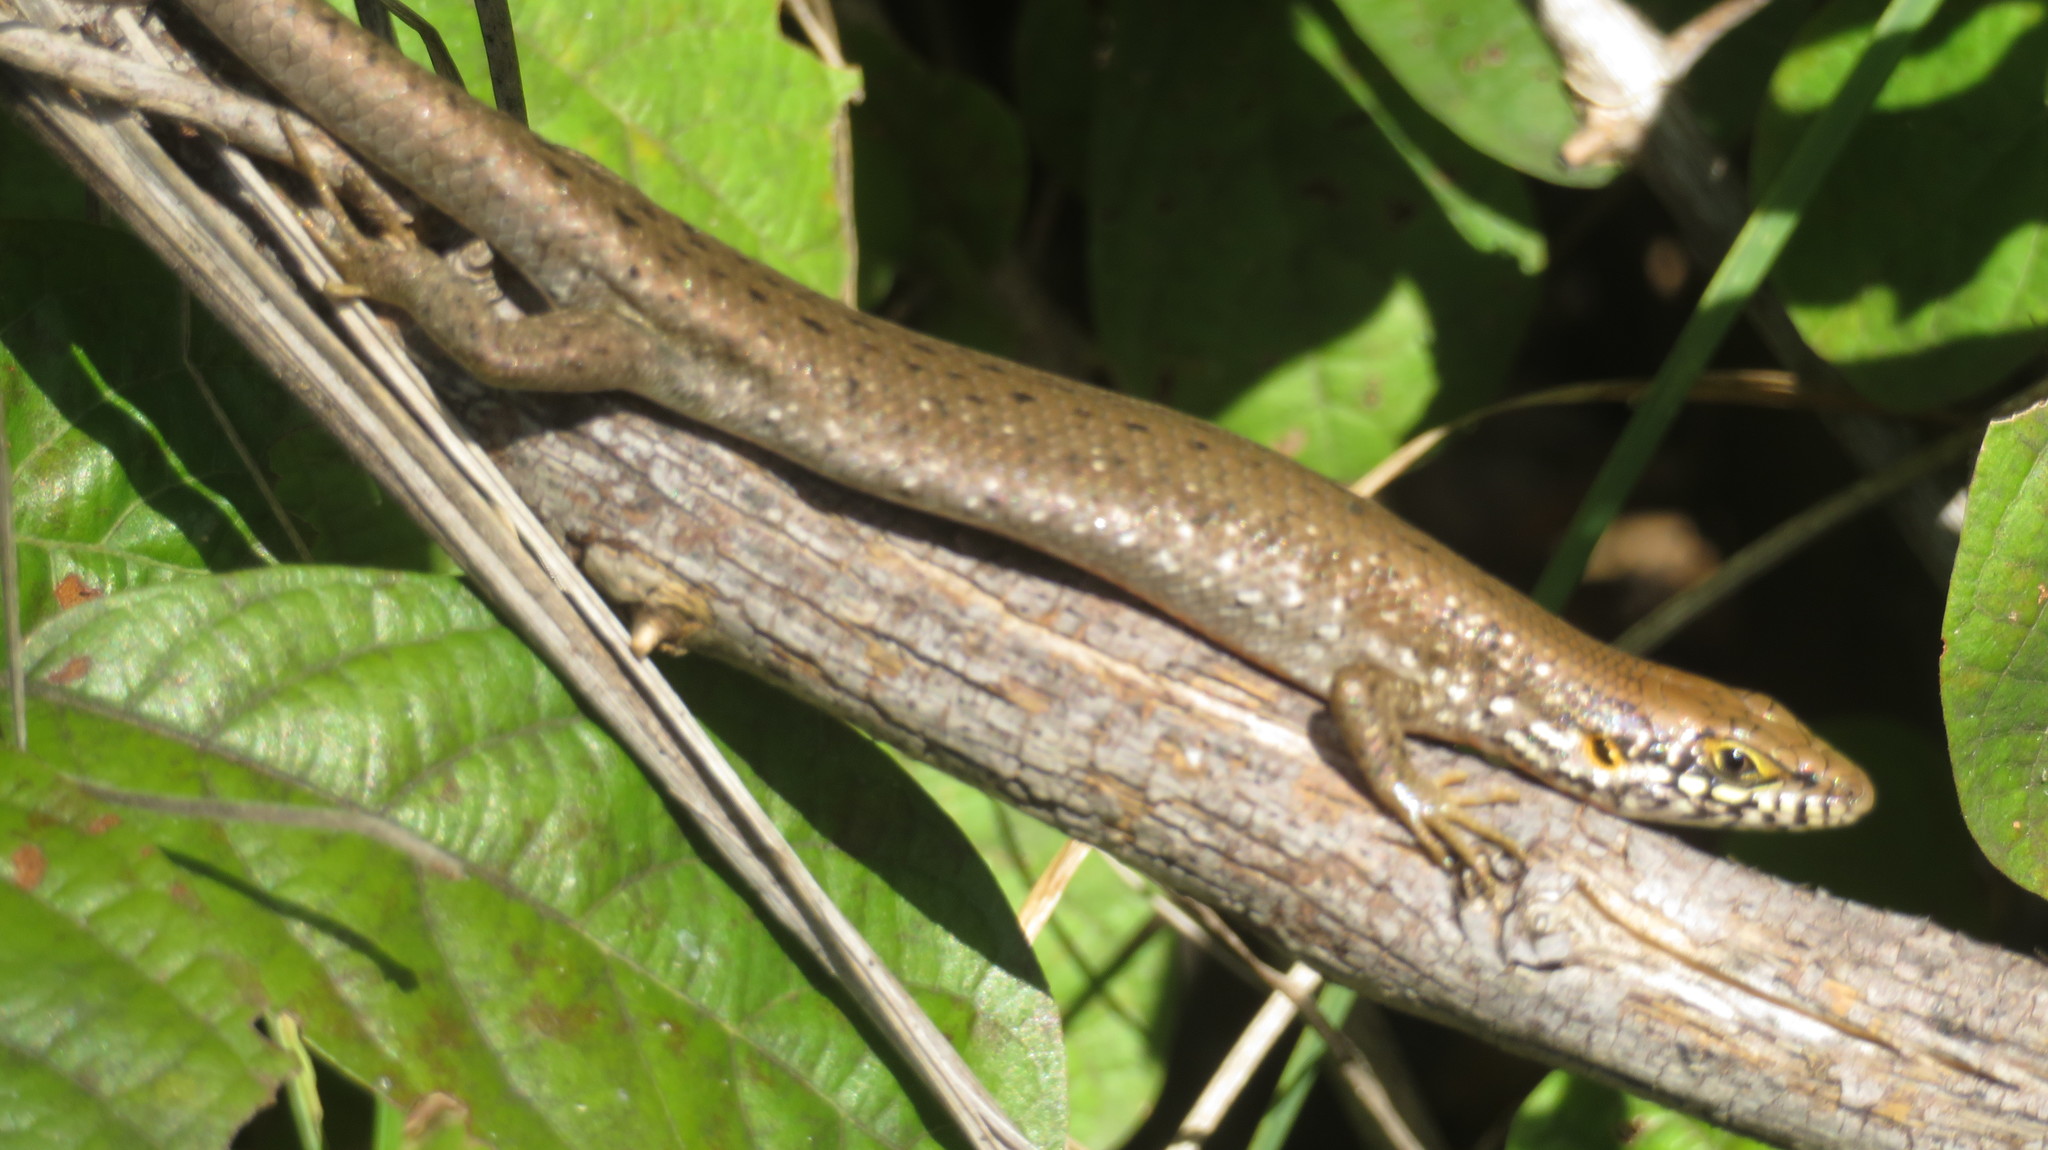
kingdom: Animalia
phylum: Chordata
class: Squamata
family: Scincidae
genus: Trachylepis
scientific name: Trachylepis maculilabris
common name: Speckle-lipped mabuya
